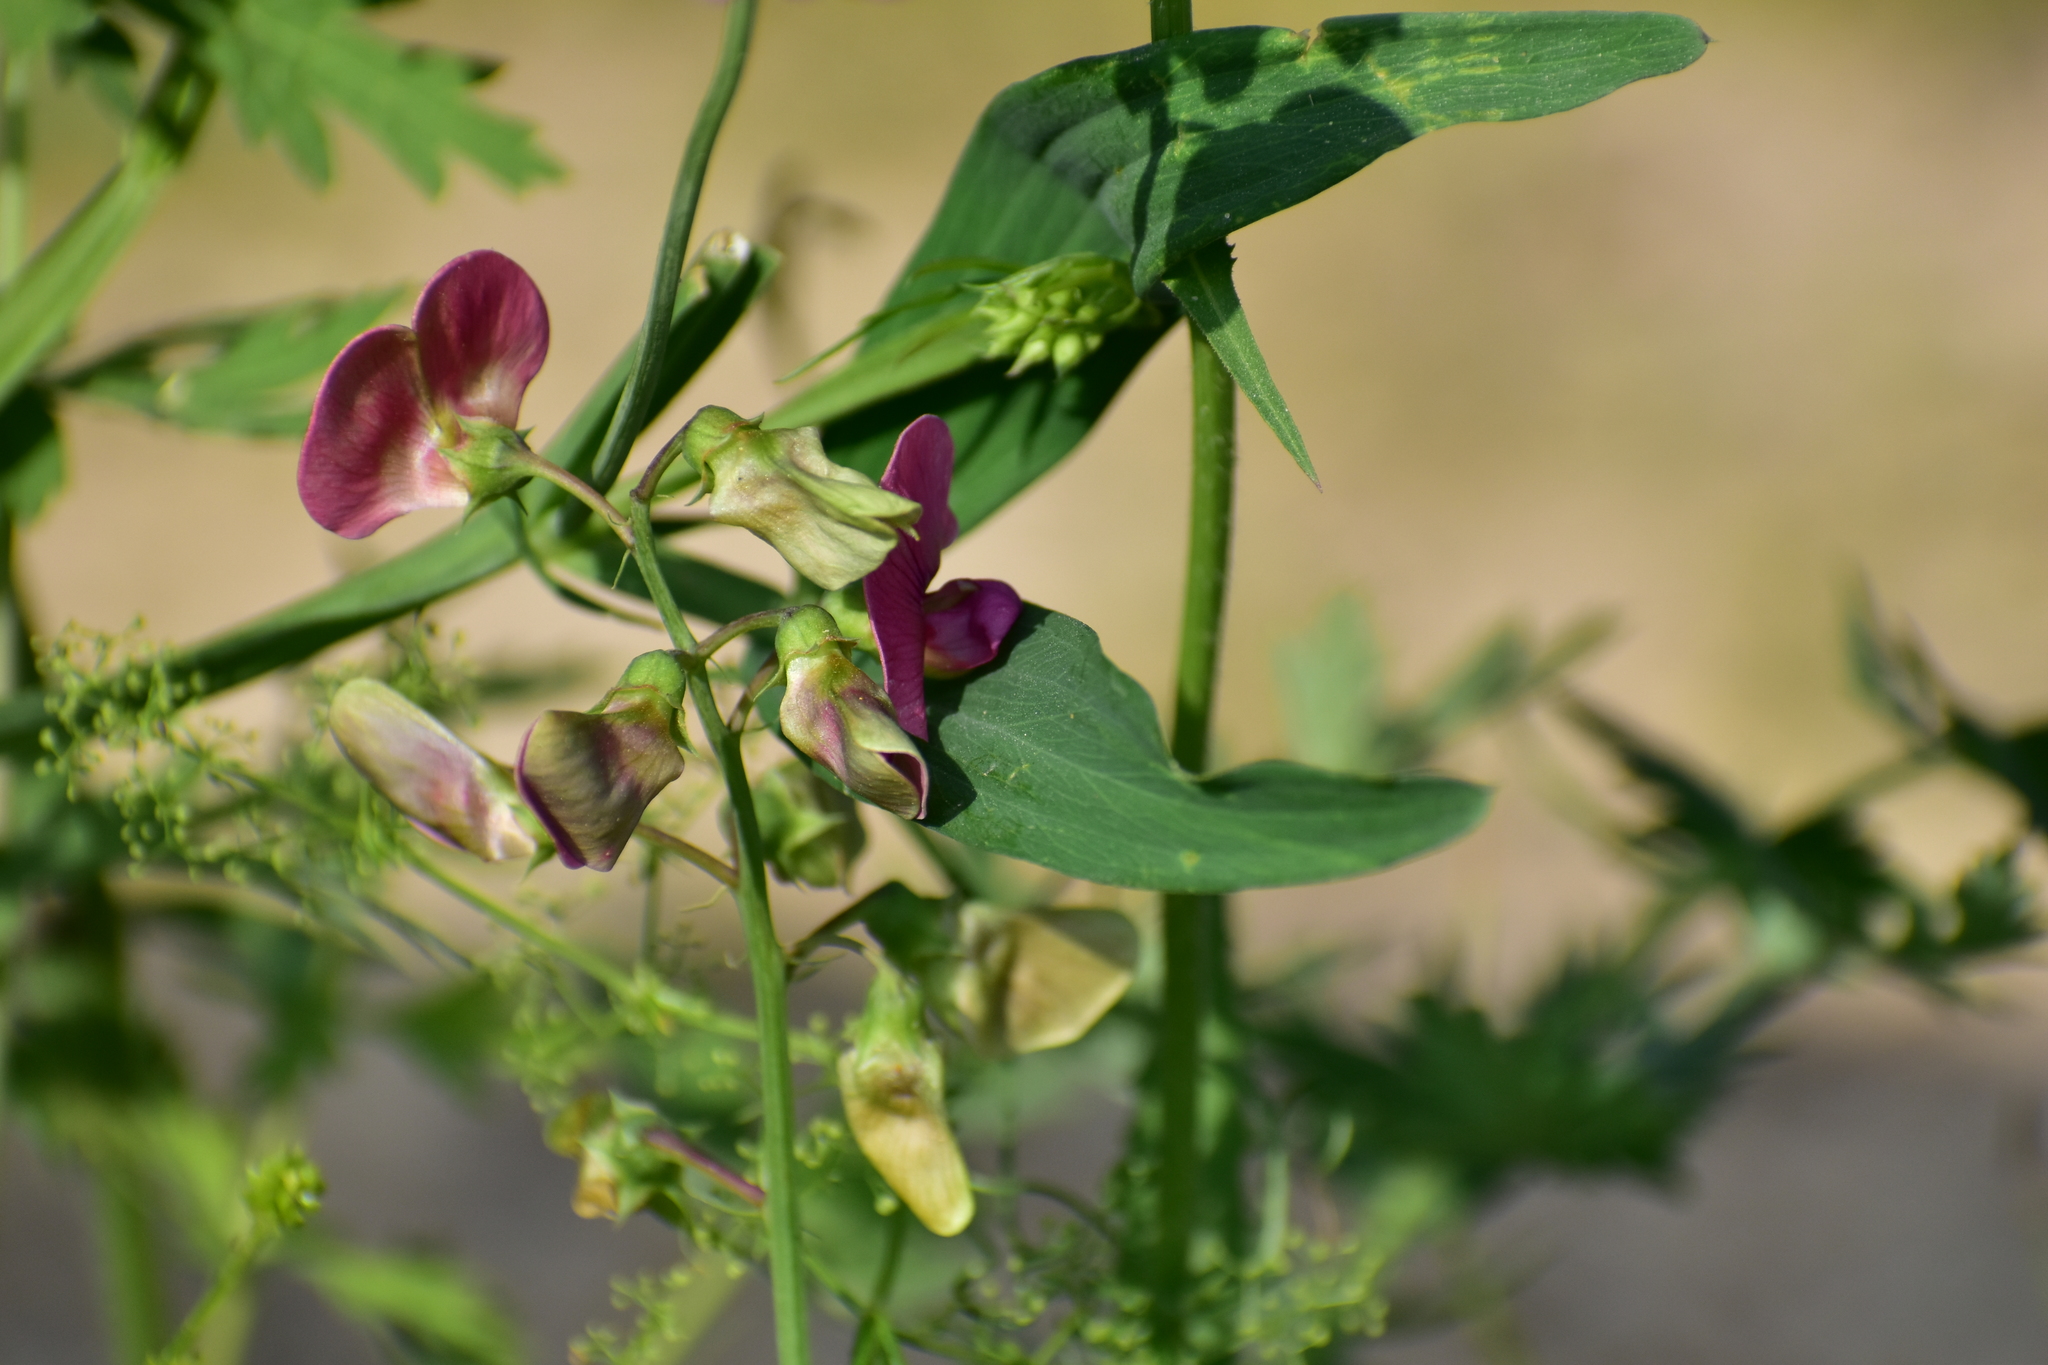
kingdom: Plantae
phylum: Tracheophyta
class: Magnoliopsida
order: Fabales
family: Fabaceae
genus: Lathyrus
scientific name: Lathyrus sylvestris
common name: Flat pea
